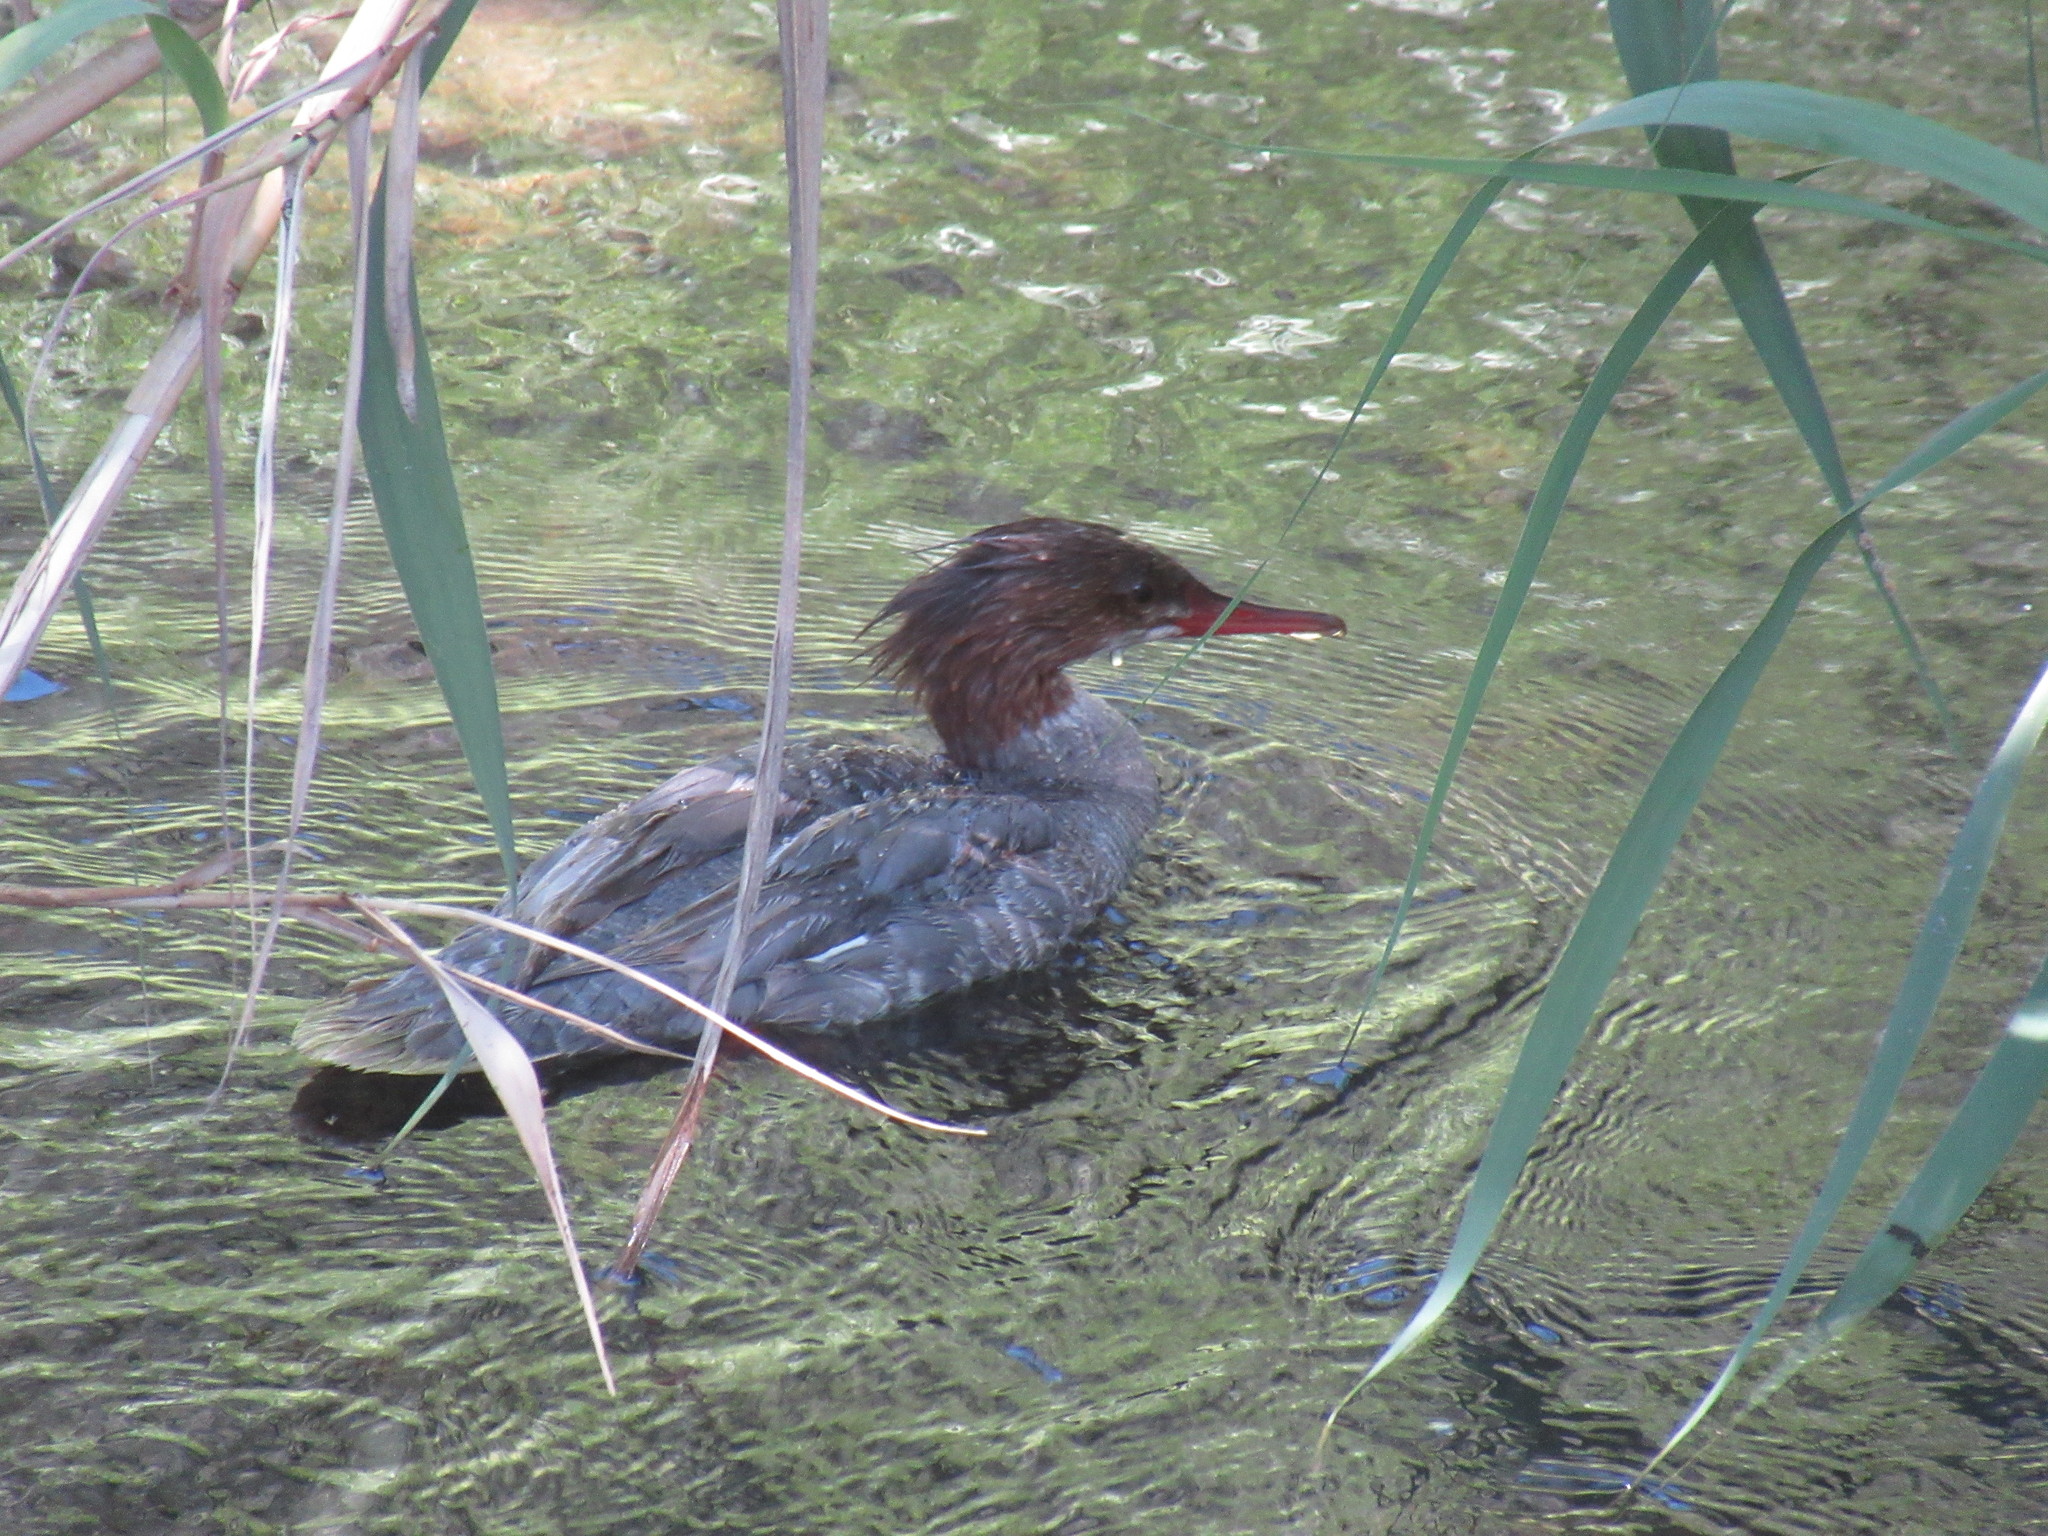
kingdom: Animalia
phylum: Chordata
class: Aves
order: Anseriformes
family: Anatidae
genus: Mergus
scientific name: Mergus merganser
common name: Common merganser
